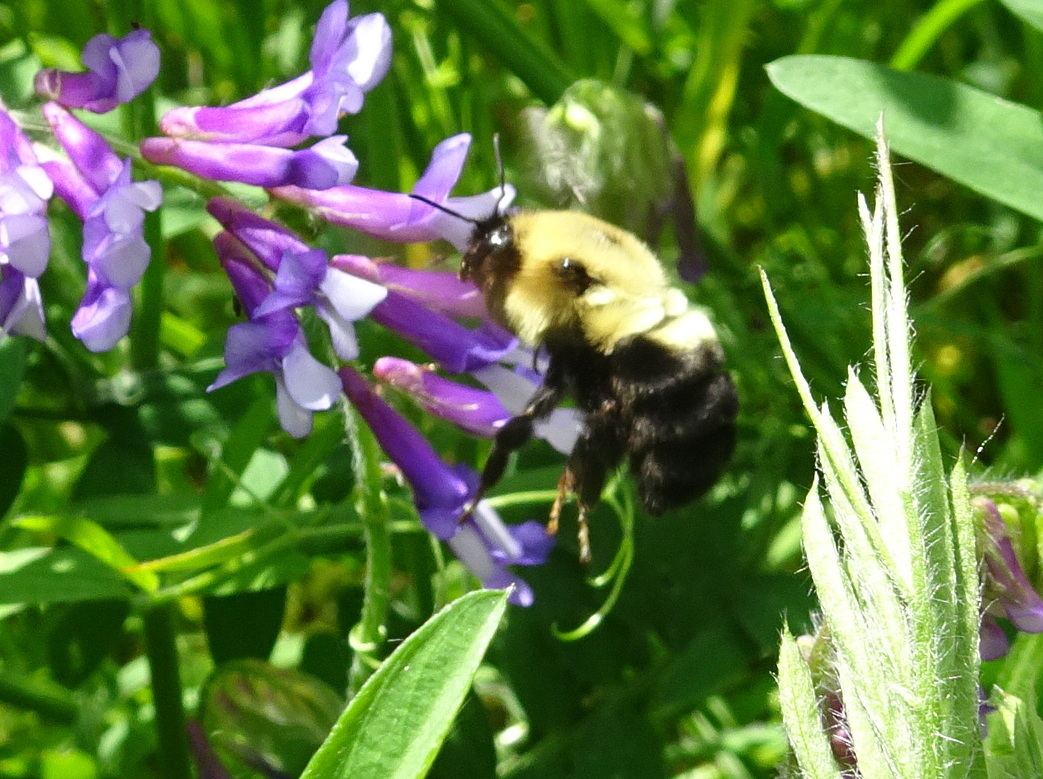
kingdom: Animalia
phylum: Arthropoda
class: Insecta
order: Hymenoptera
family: Apidae
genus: Bombus
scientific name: Bombus bimaculatus
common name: Two-spotted bumble bee
